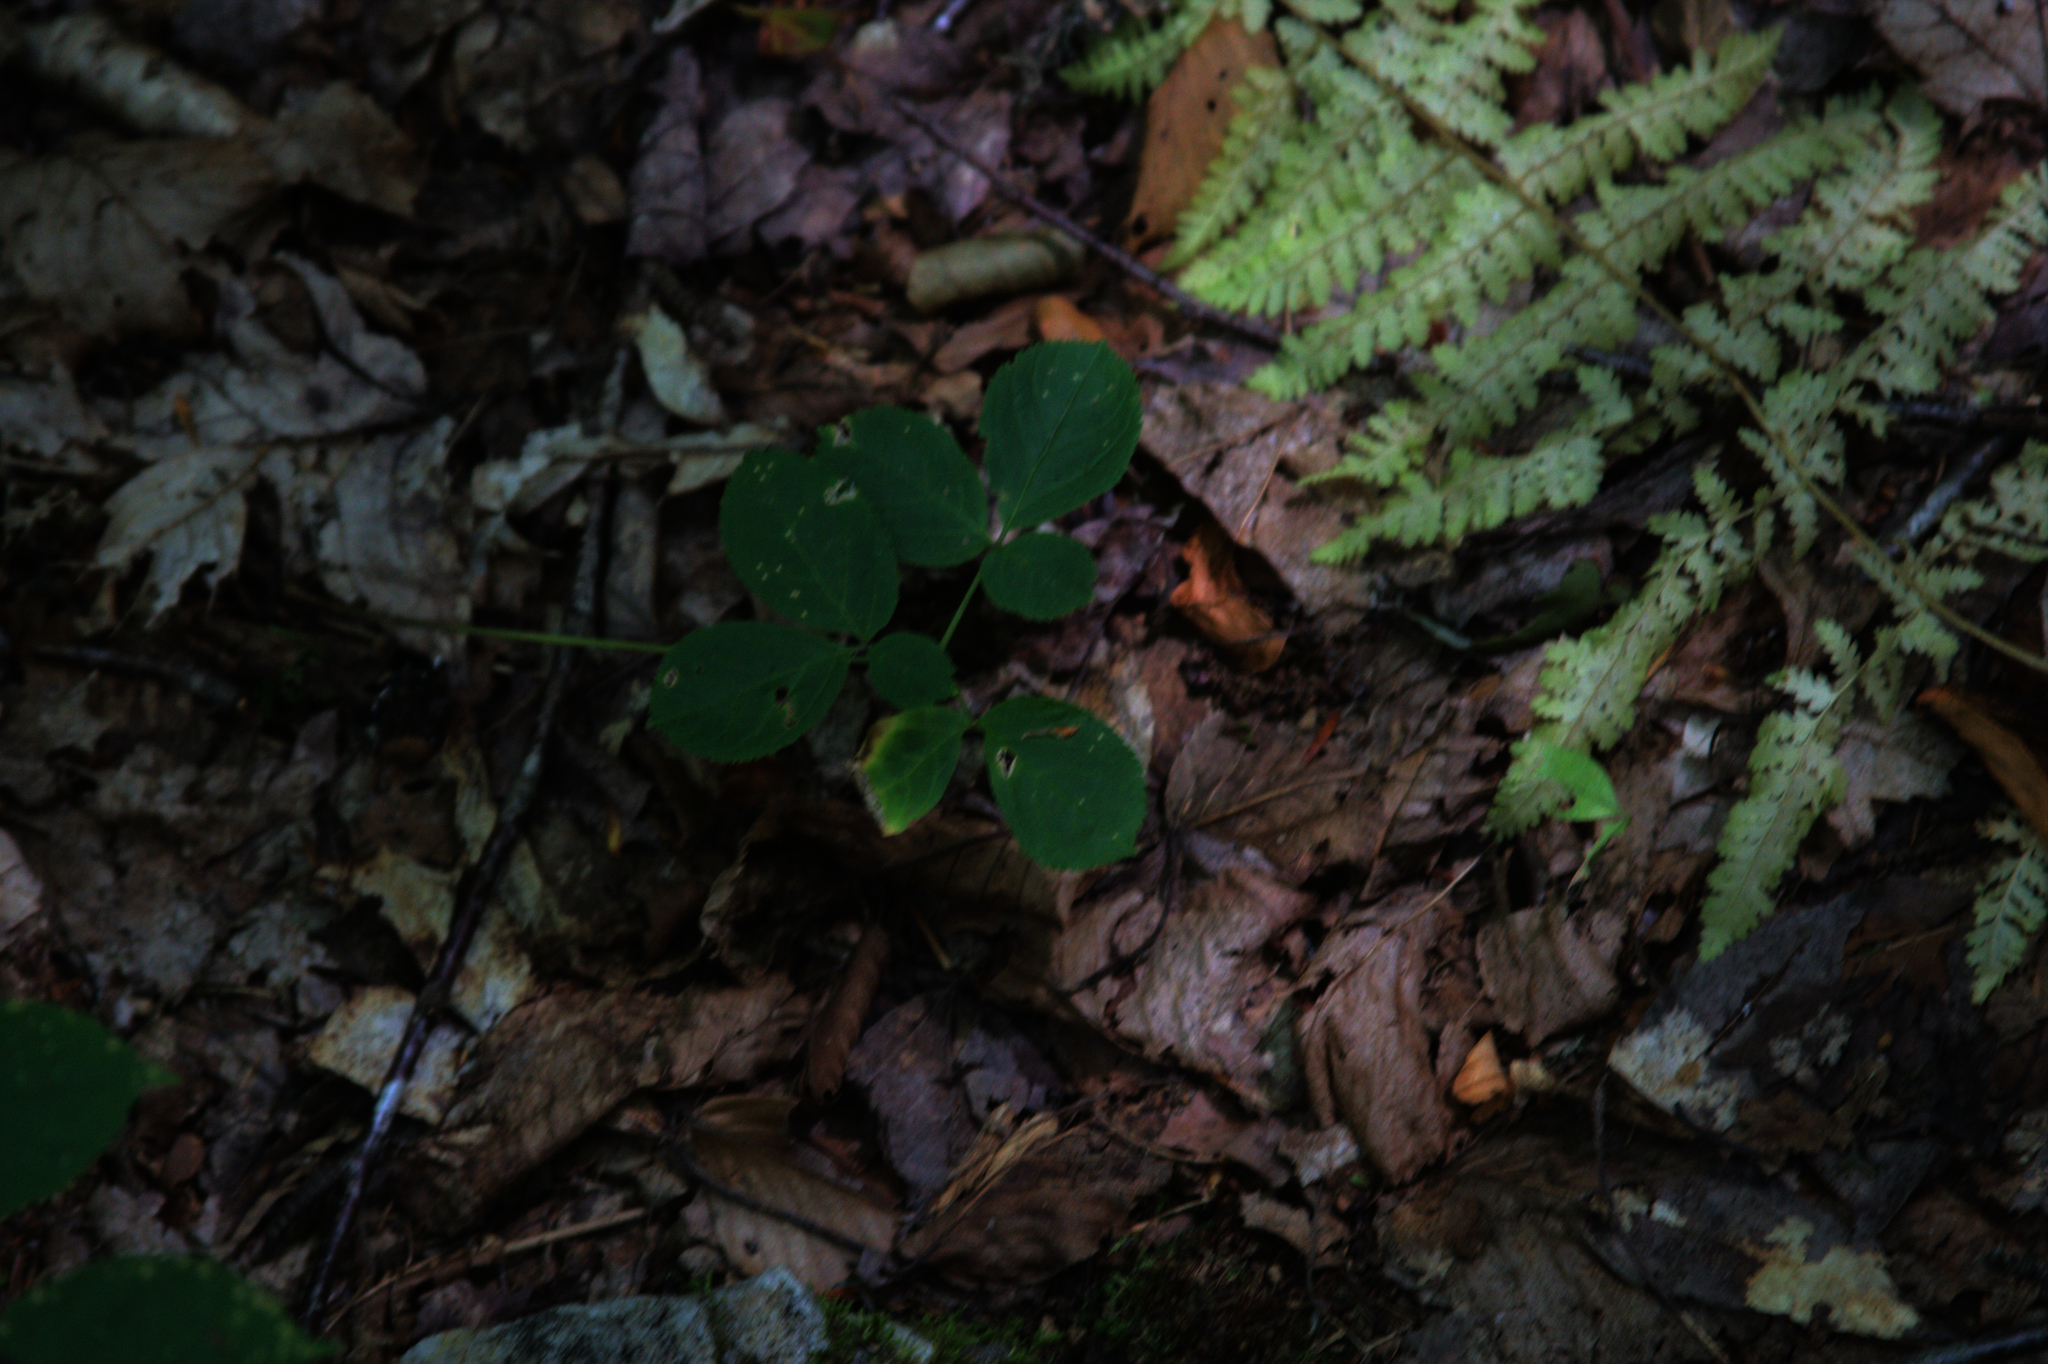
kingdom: Plantae
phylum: Tracheophyta
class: Magnoliopsida
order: Apiales
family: Araliaceae
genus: Aralia
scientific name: Aralia nudicaulis
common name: Wild sarsaparilla
